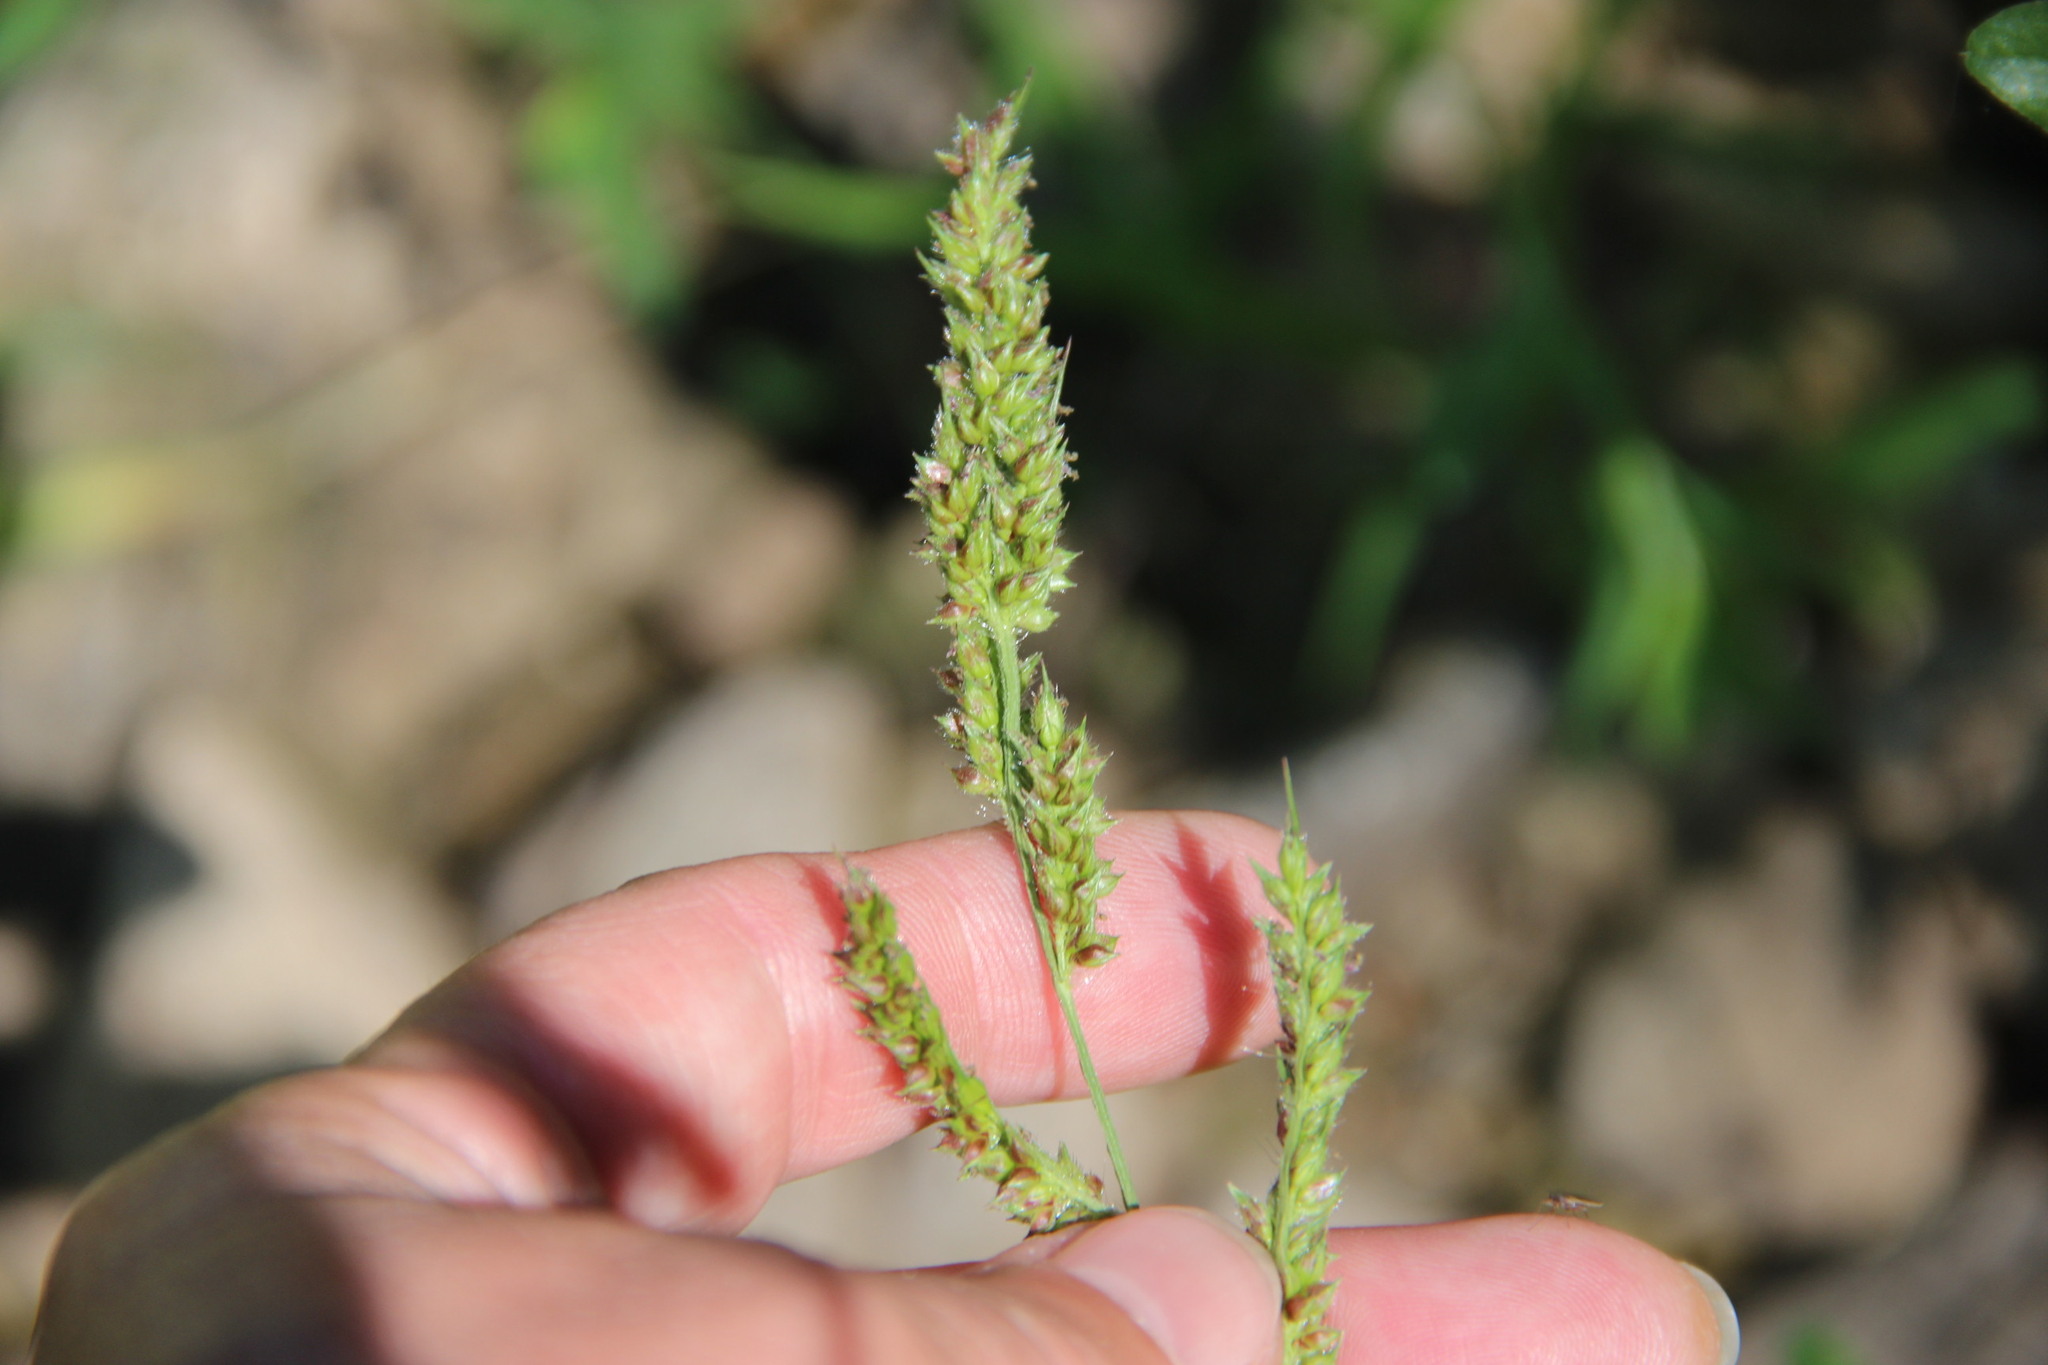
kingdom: Plantae
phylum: Tracheophyta
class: Liliopsida
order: Poales
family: Poaceae
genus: Echinochloa
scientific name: Echinochloa crus-galli
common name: Cockspur
